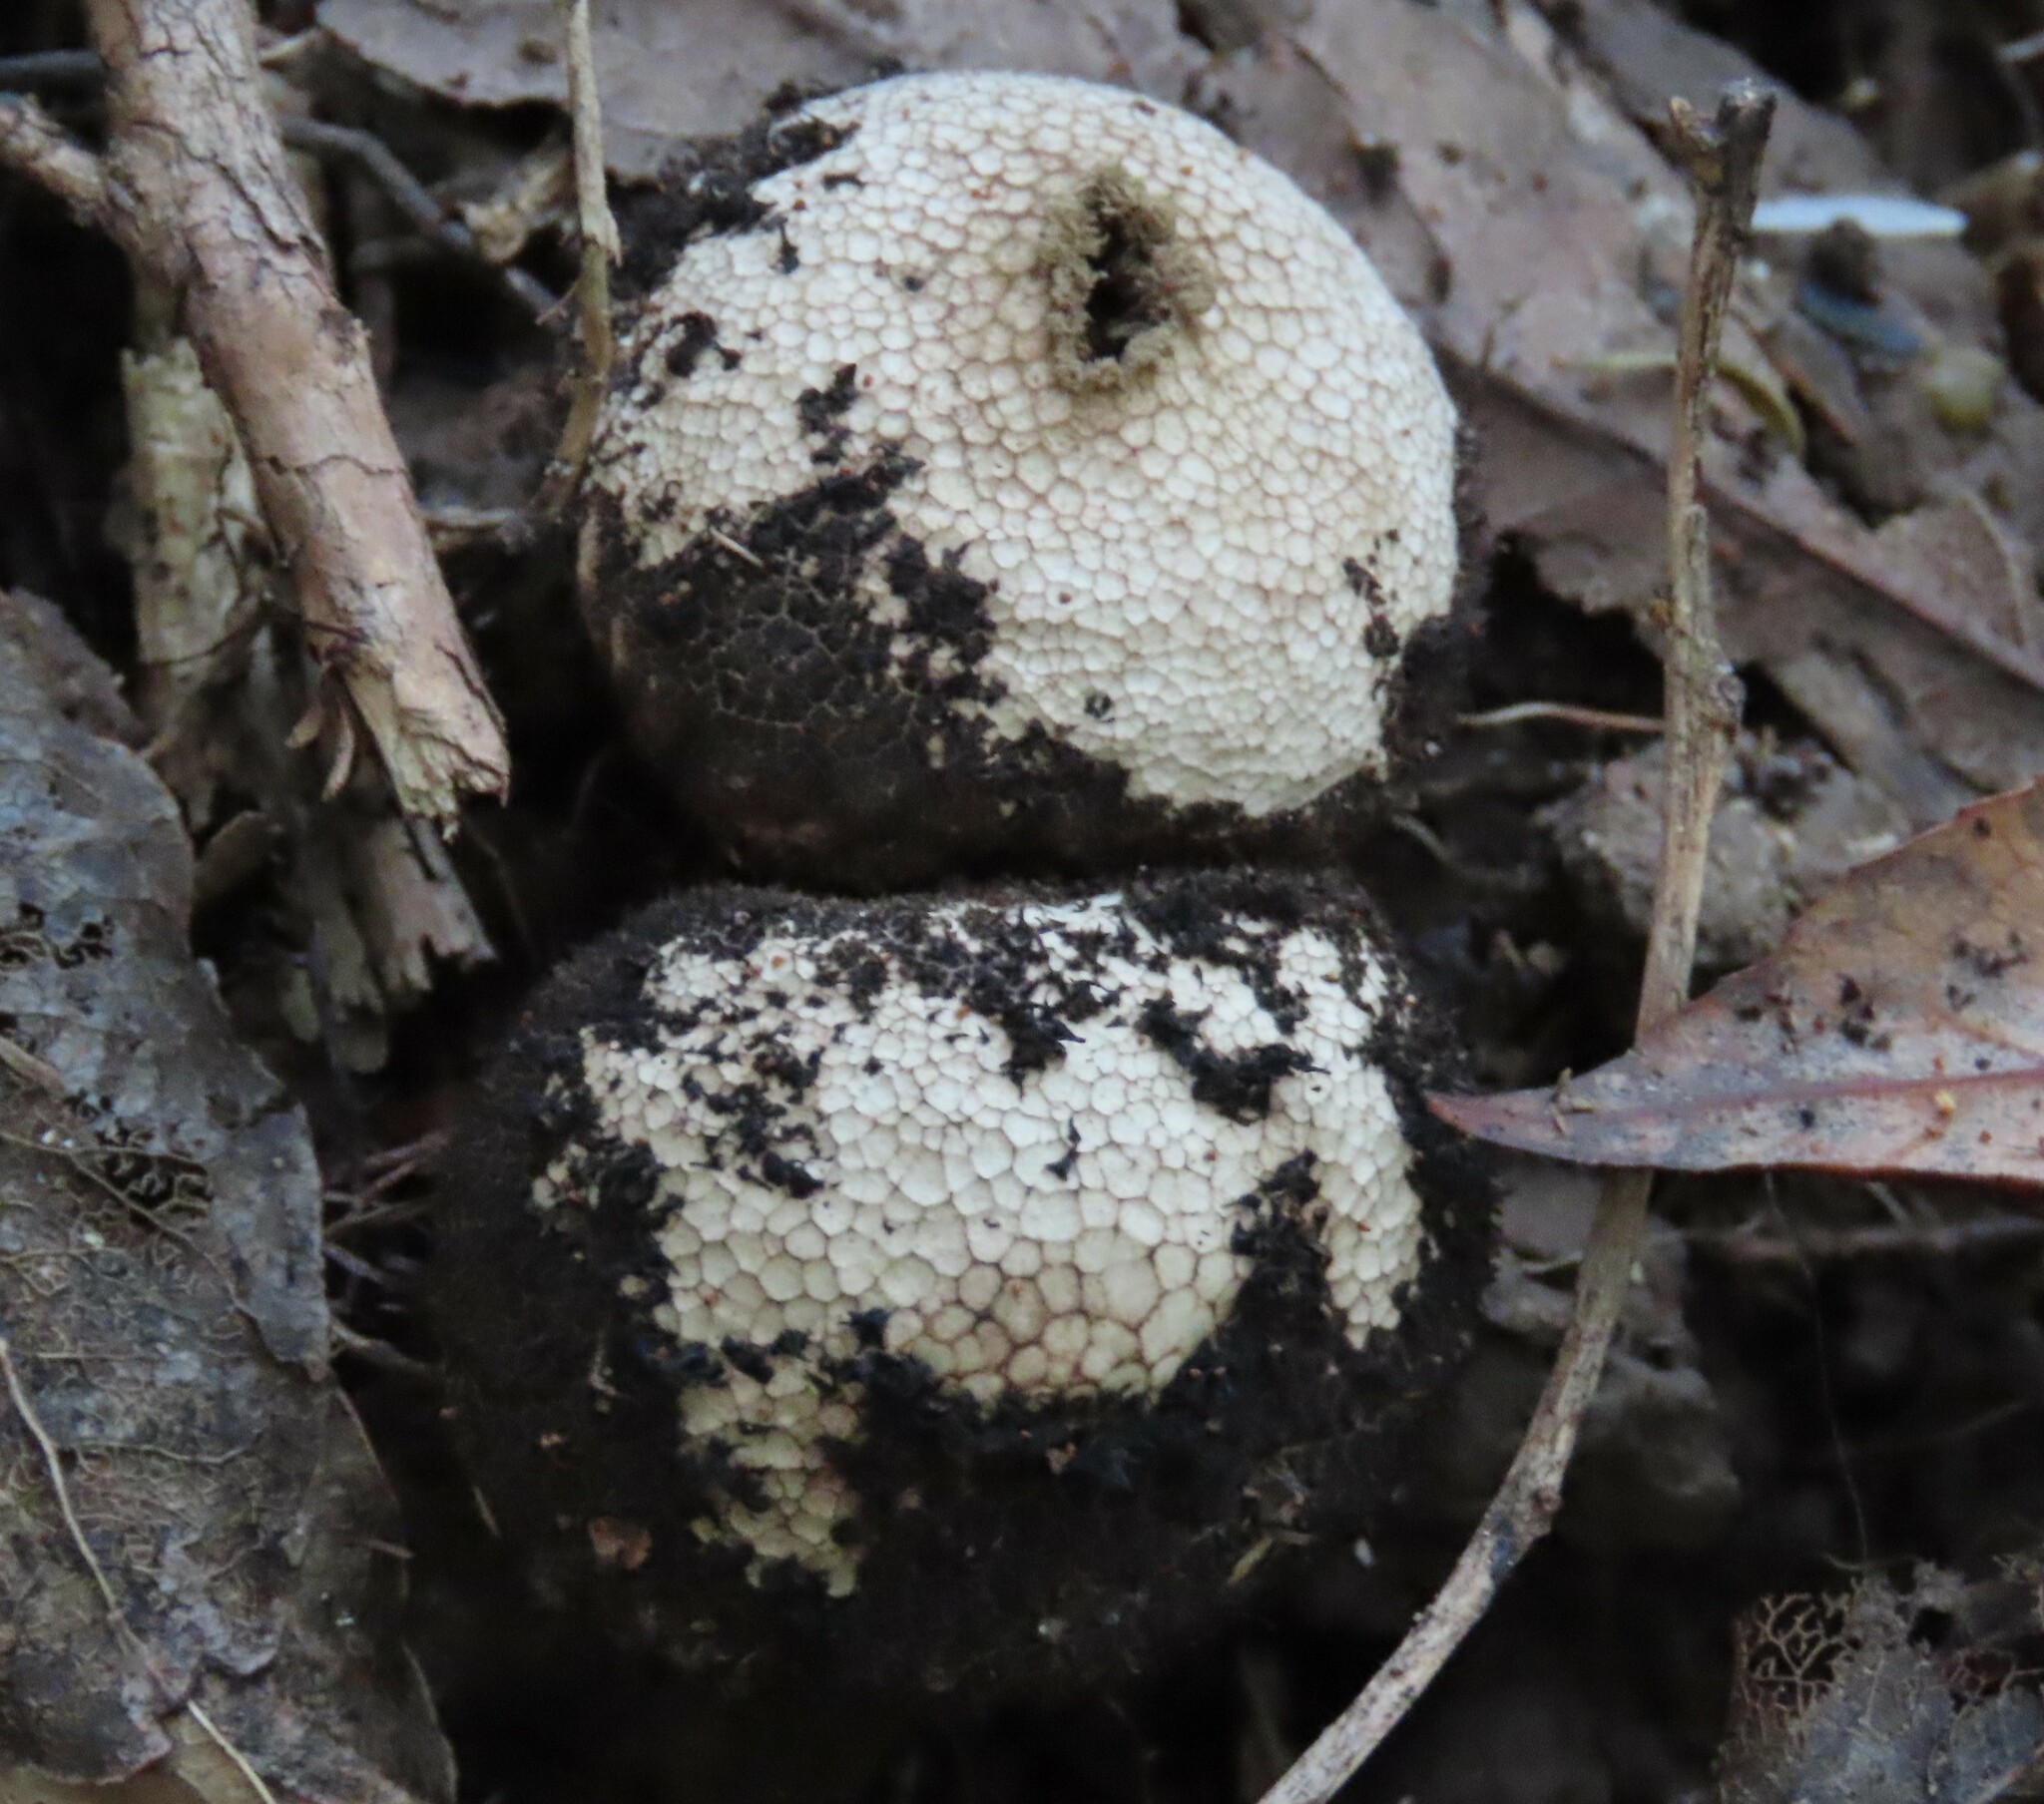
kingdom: Fungi
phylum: Basidiomycota
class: Agaricomycetes
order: Agaricales
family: Lycoperdaceae
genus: Lycoperdon
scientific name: Lycoperdon compactum
